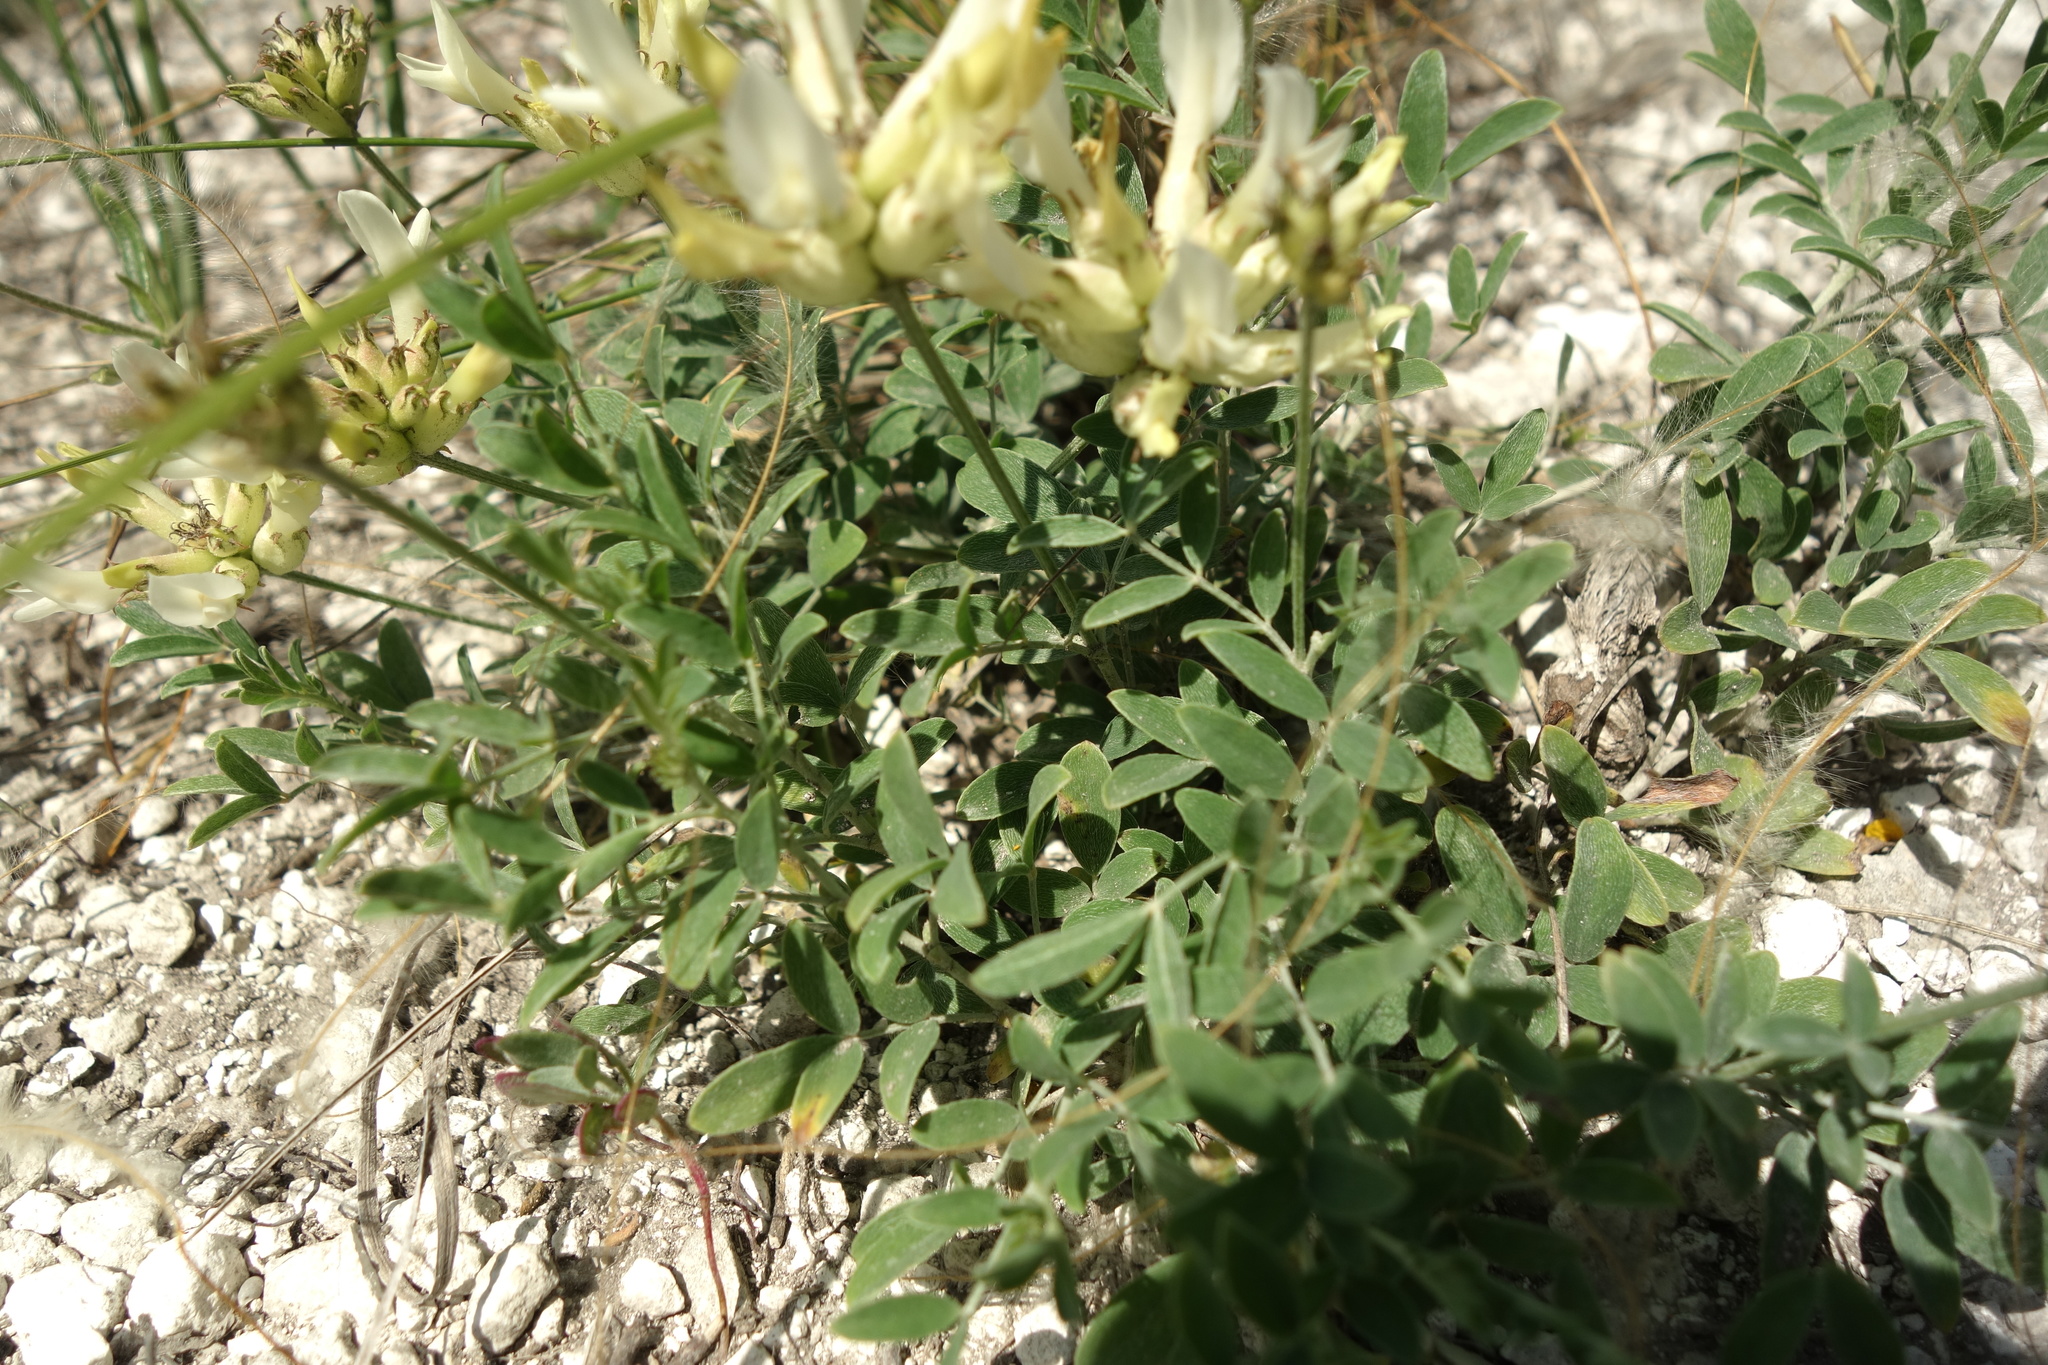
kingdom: Plantae
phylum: Tracheophyta
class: Magnoliopsida
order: Fabales
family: Fabaceae
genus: Astragalus
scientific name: Astragalus albicaulis
